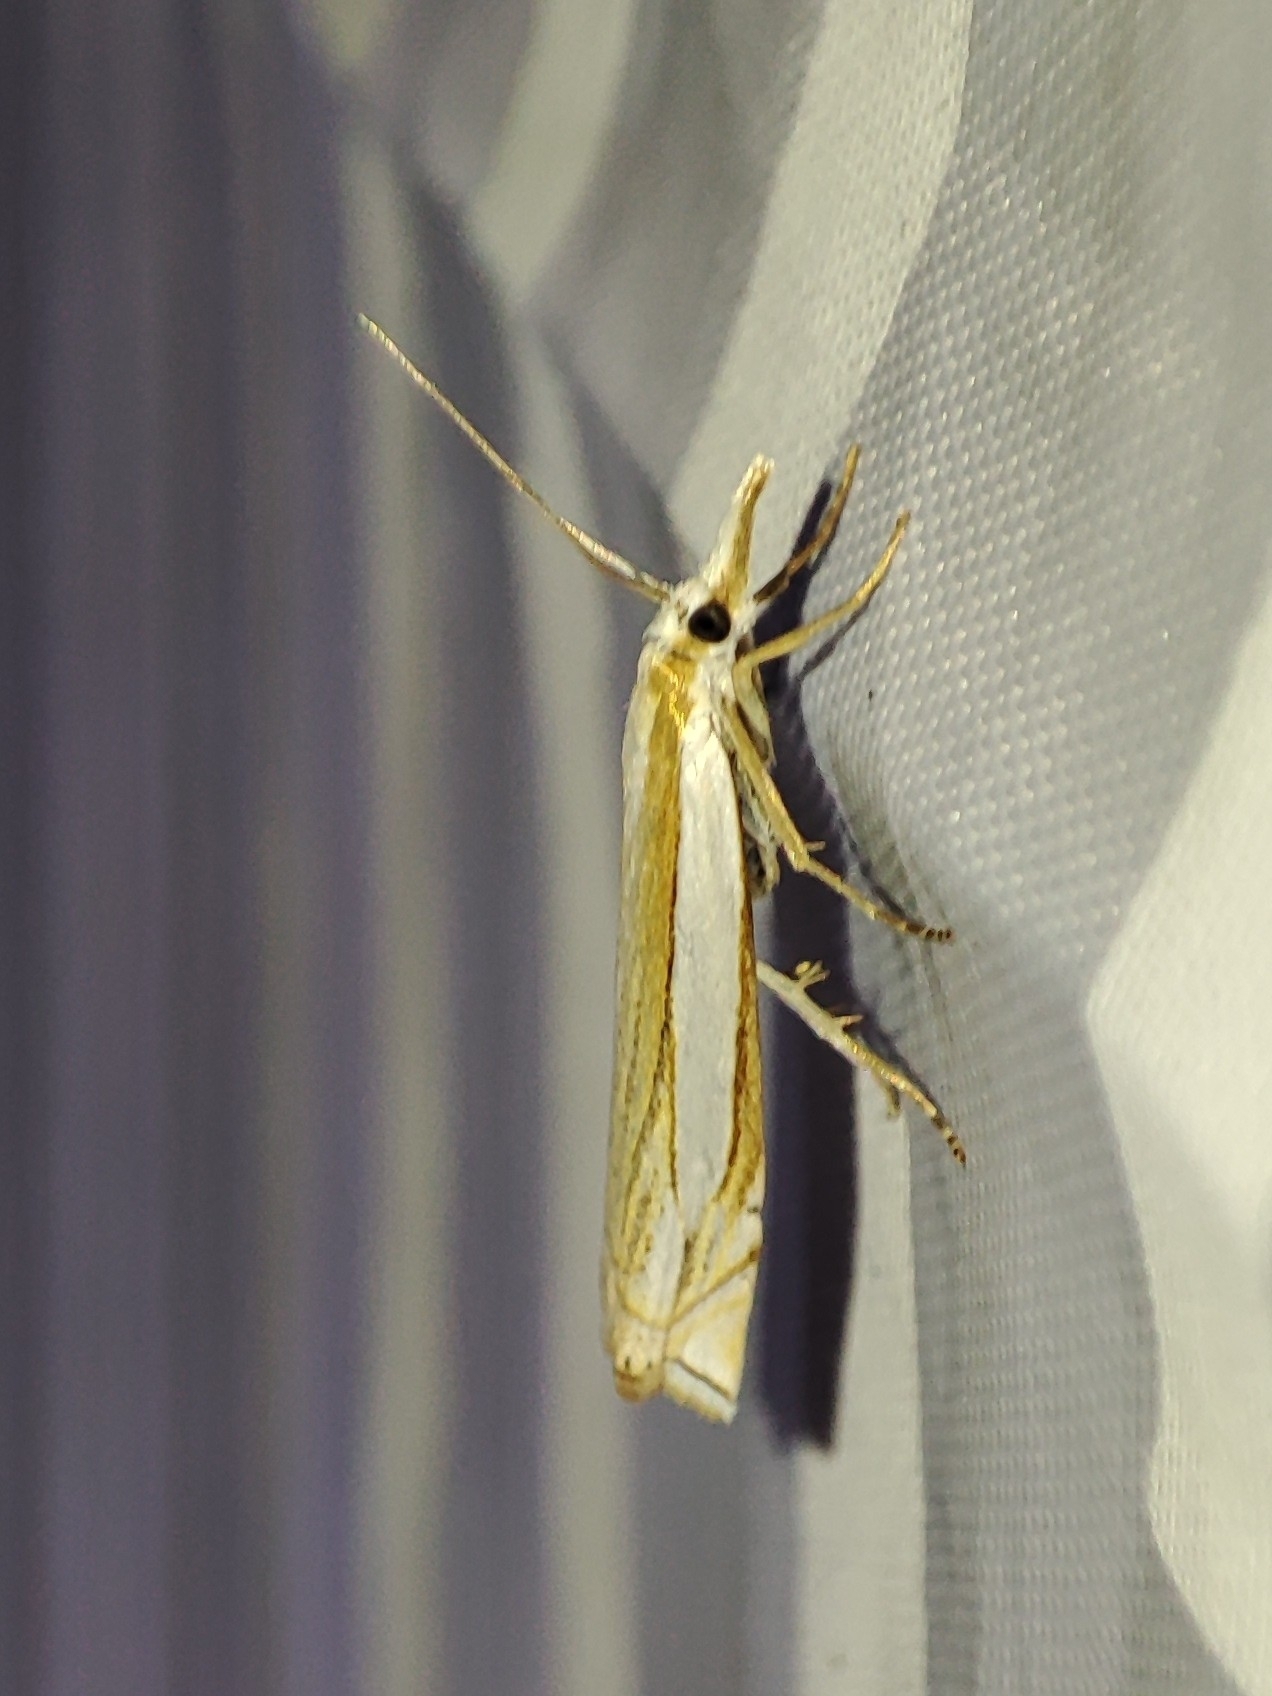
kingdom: Animalia
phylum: Arthropoda
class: Insecta
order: Lepidoptera
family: Crambidae
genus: Crambus
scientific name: Crambus pascuella
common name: Inlaid grass-veneer
